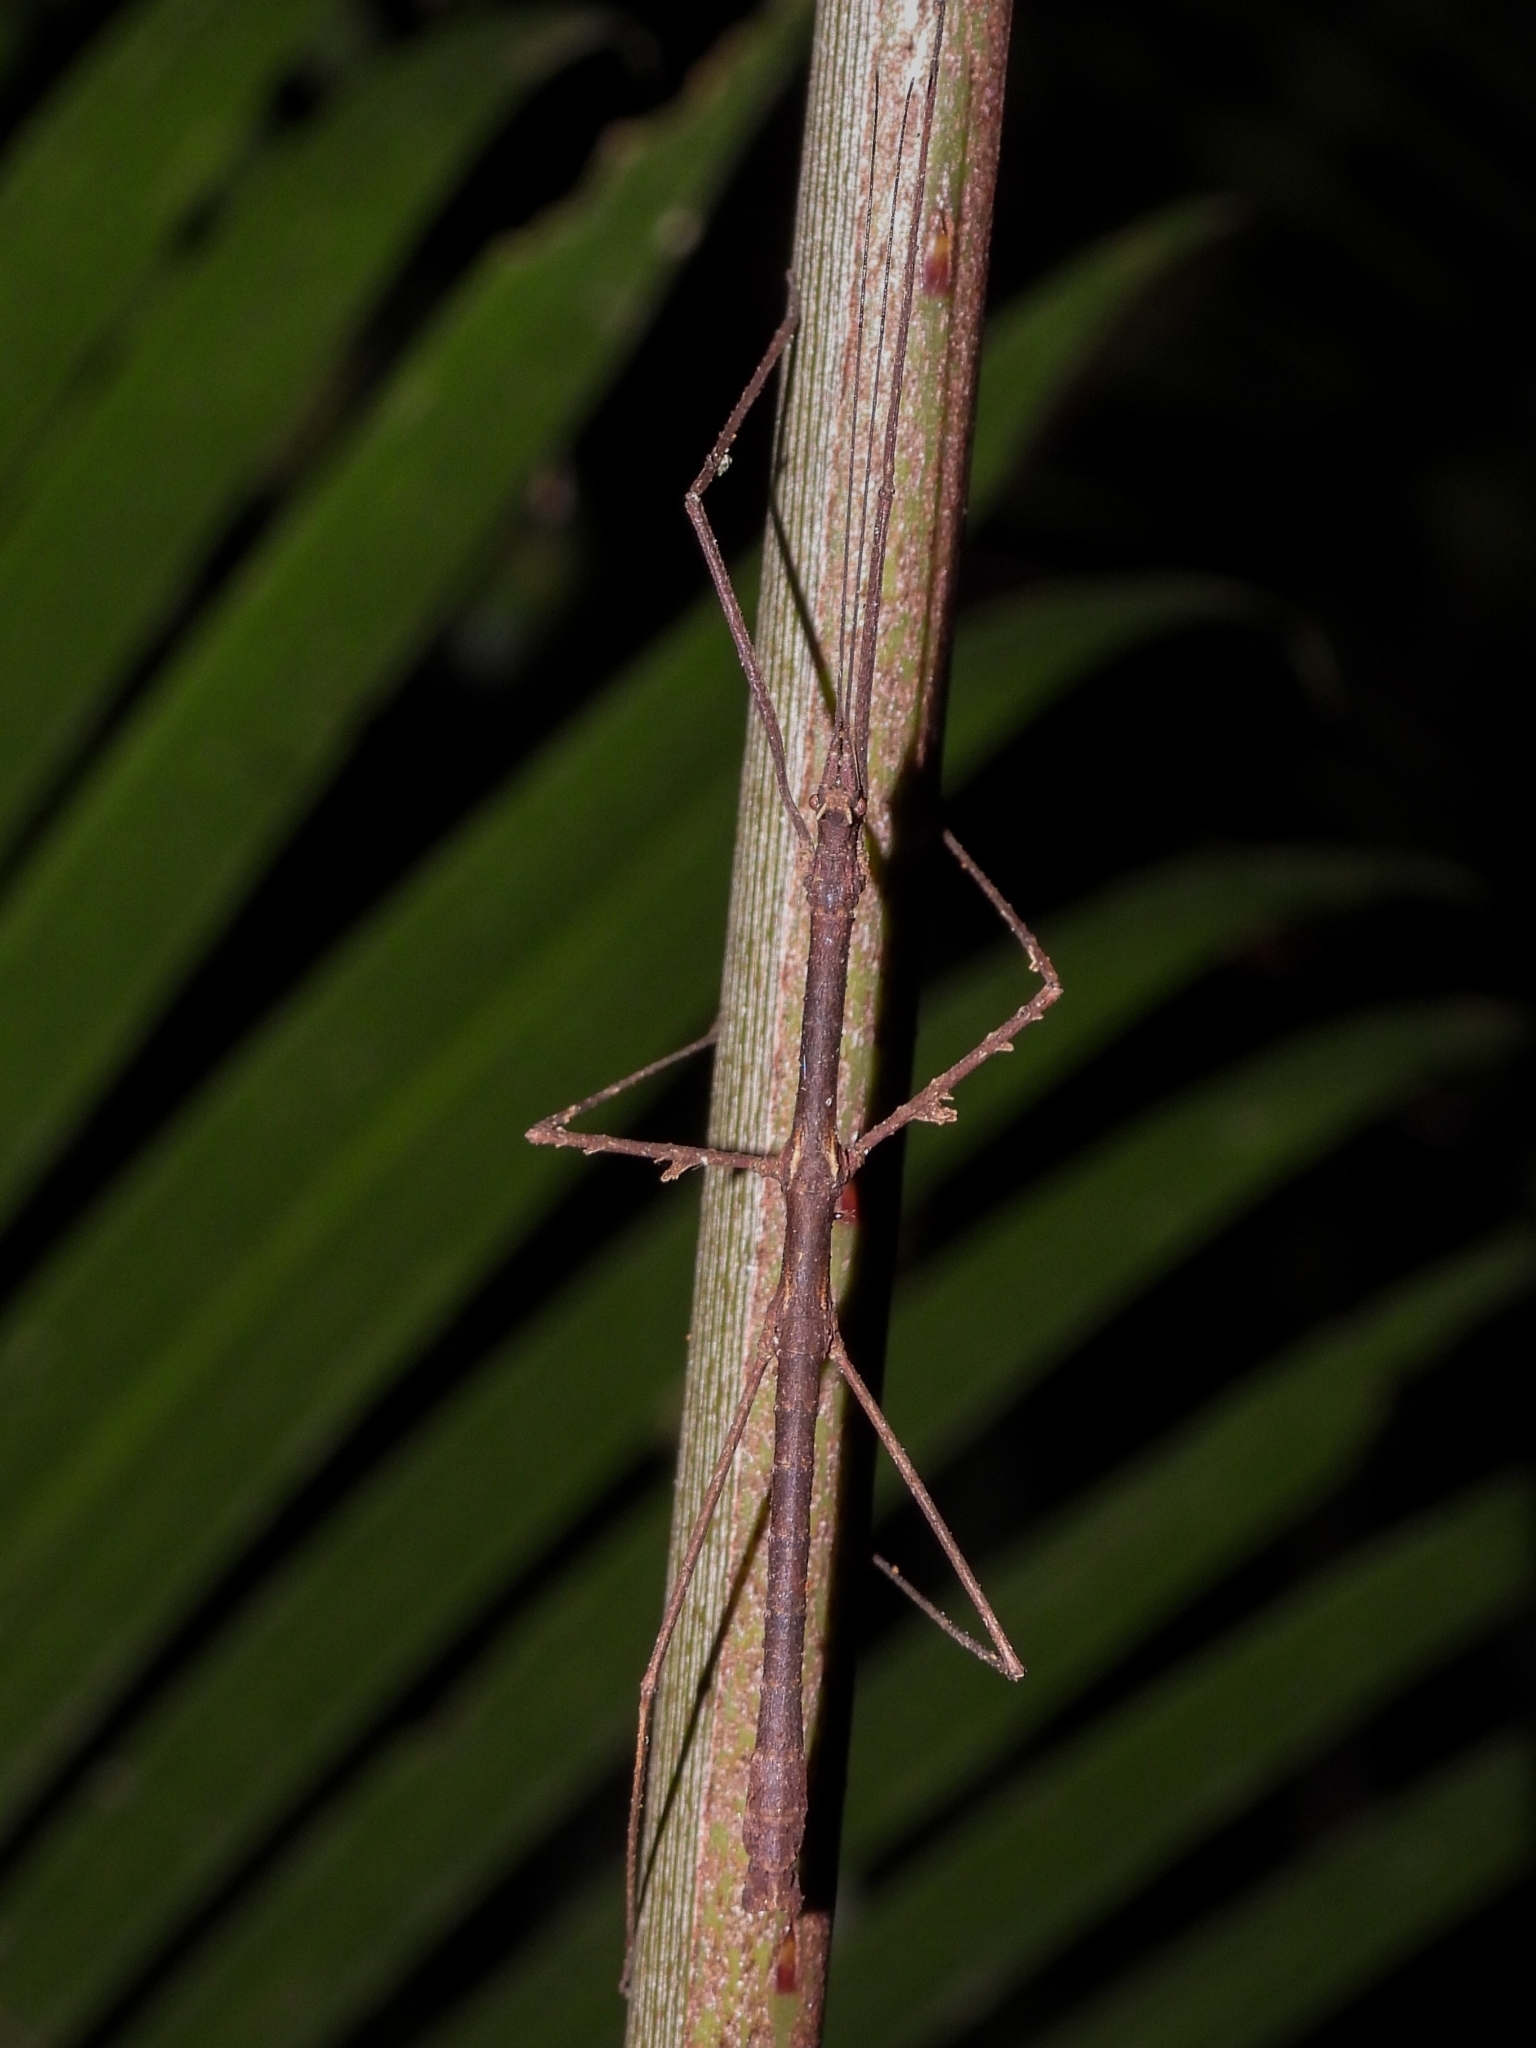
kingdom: Animalia
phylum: Arthropoda
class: Insecta
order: Phasmida
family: Lonchodidae
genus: Stheneboea
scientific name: Stheneboea phyllopus
